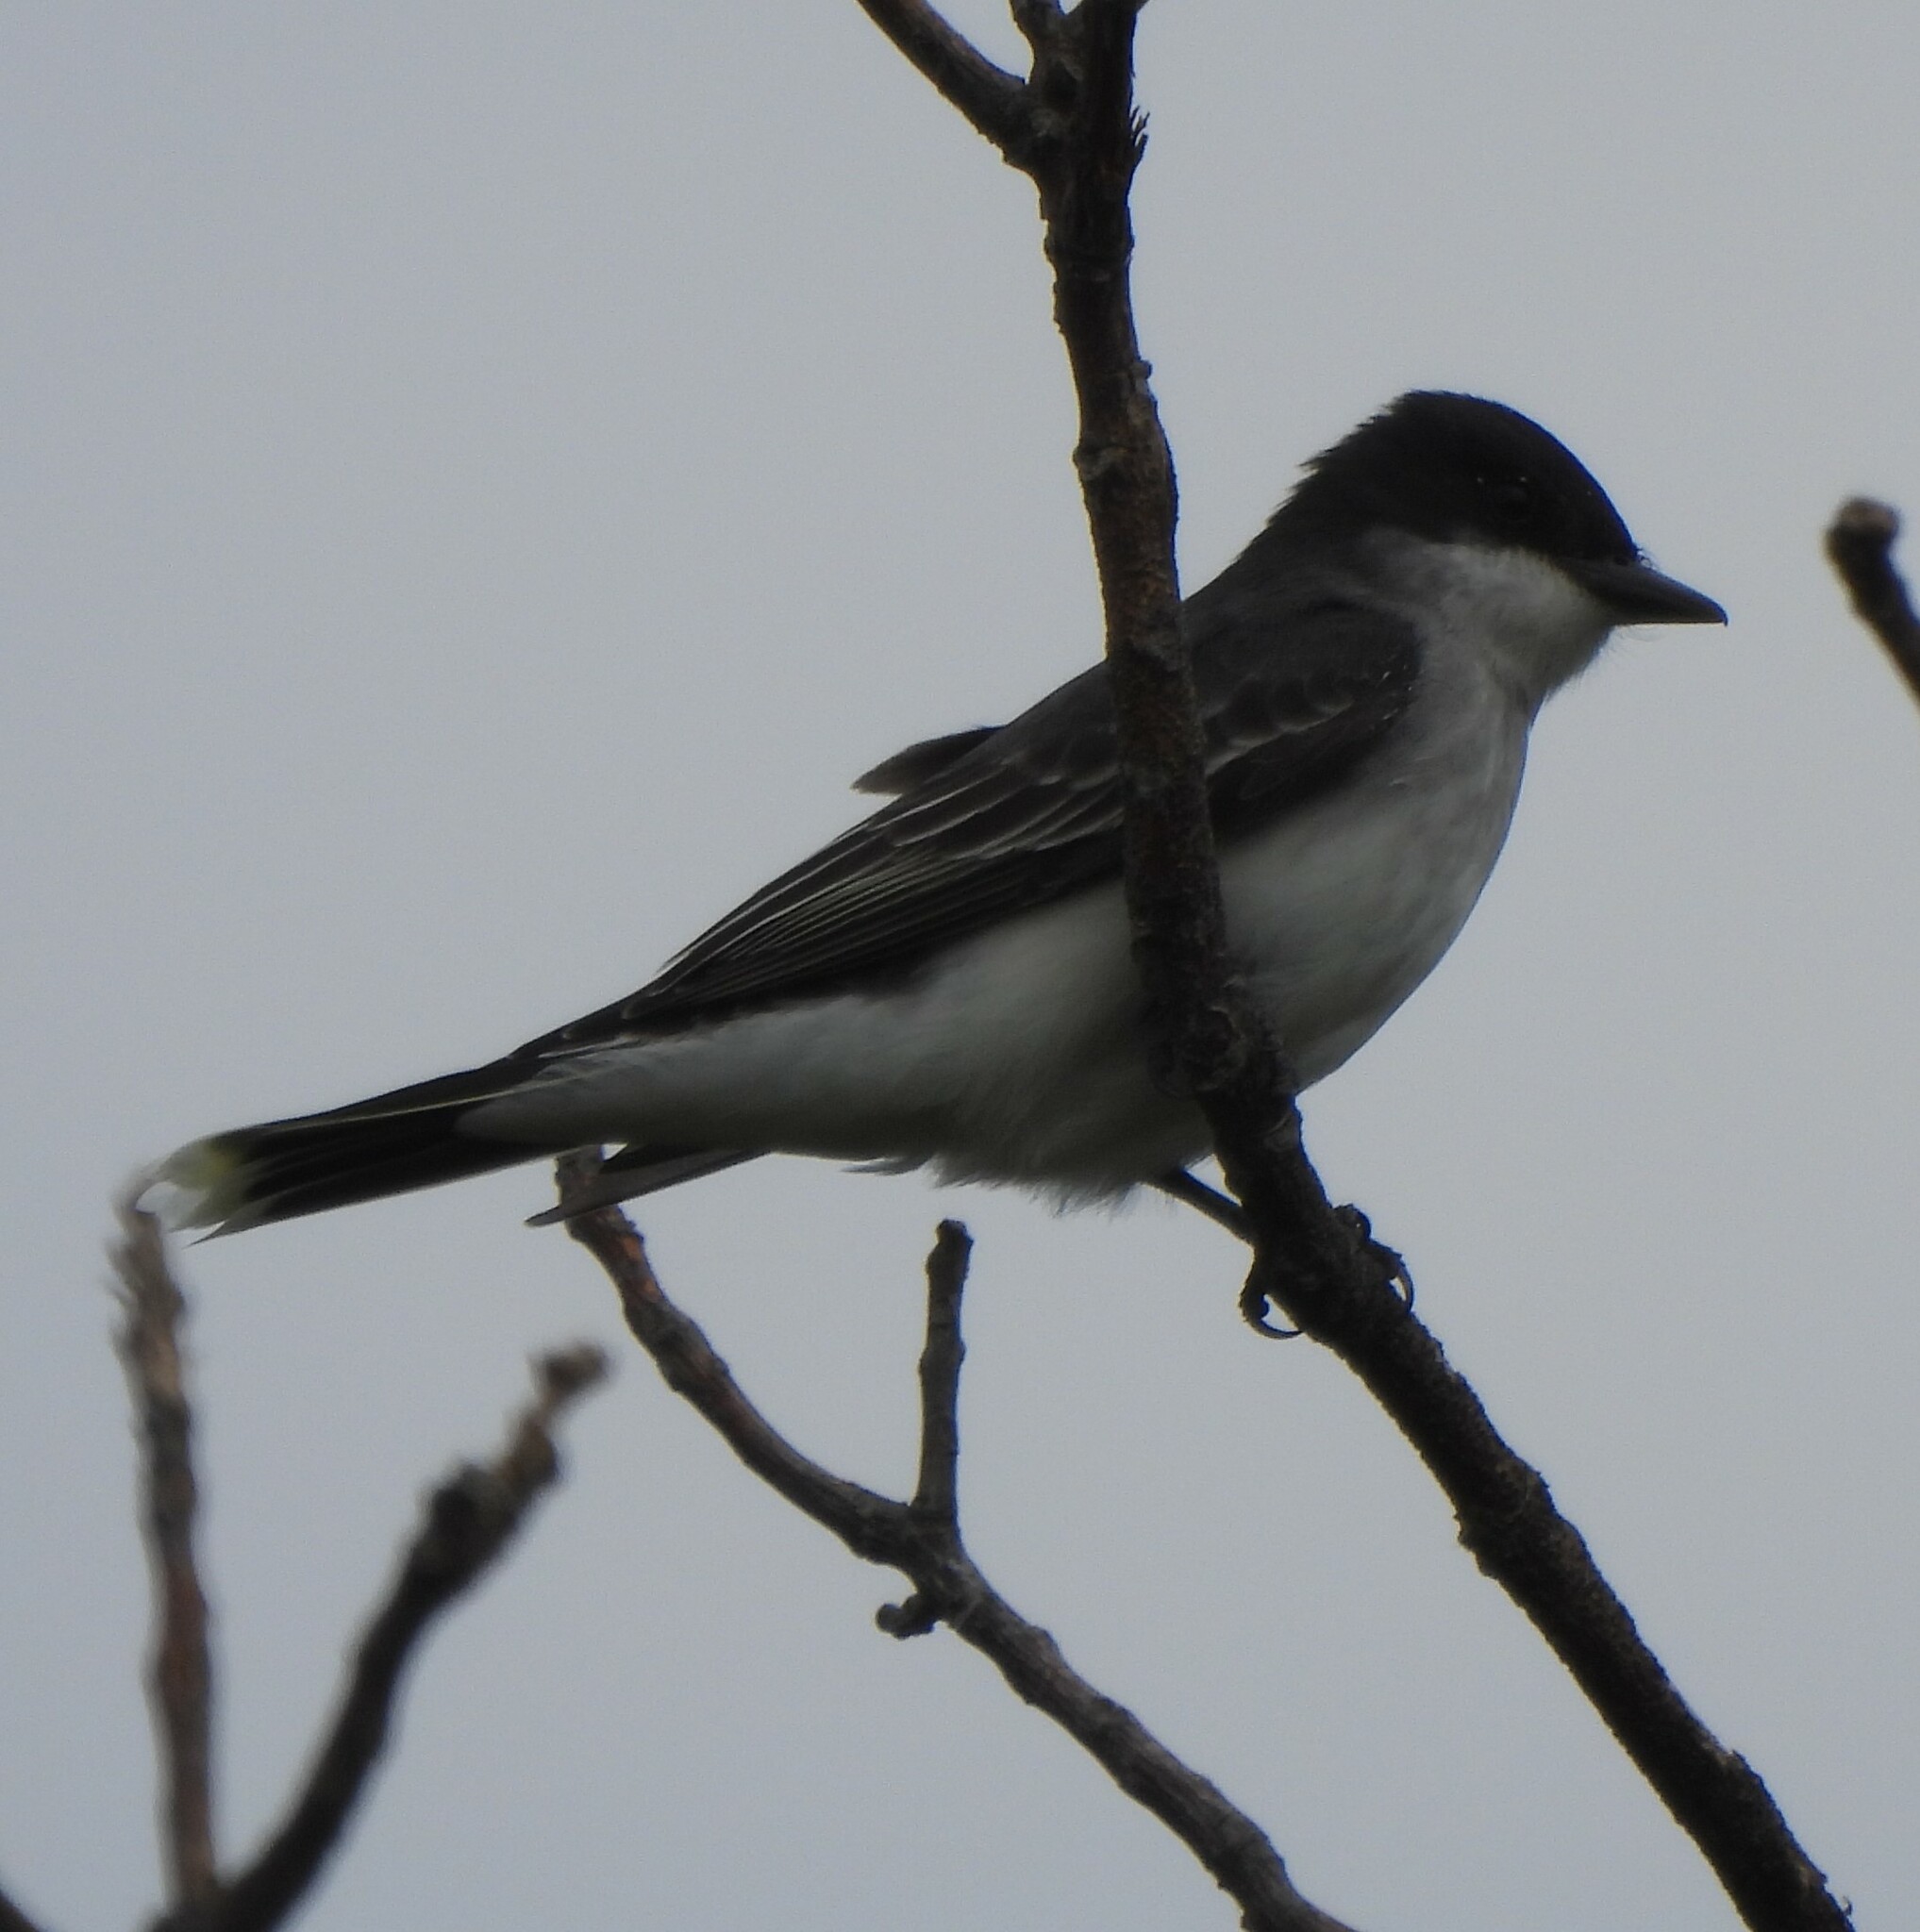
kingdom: Animalia
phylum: Chordata
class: Aves
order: Passeriformes
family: Tyrannidae
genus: Tyrannus
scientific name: Tyrannus tyrannus
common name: Eastern kingbird
